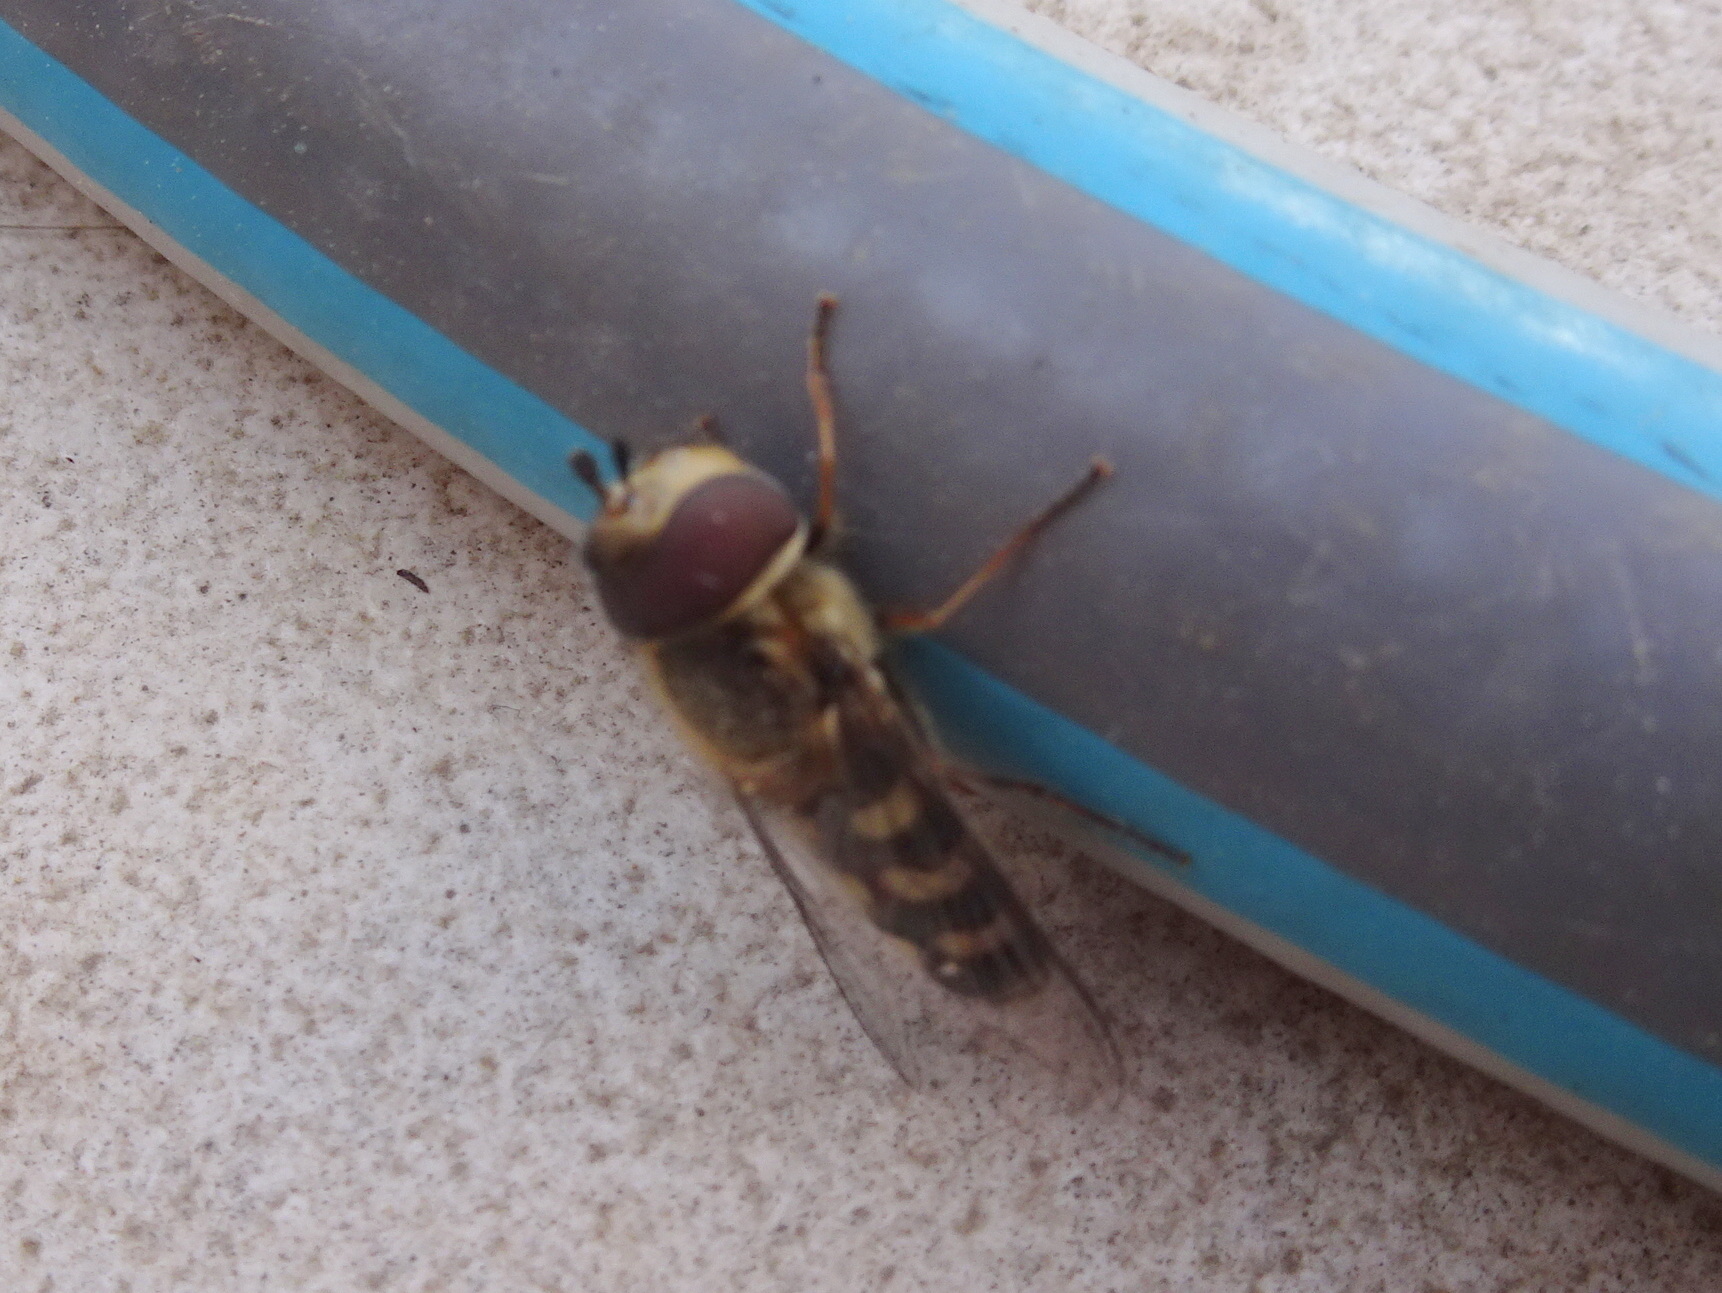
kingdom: Animalia
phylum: Arthropoda
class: Insecta
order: Diptera
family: Syrphidae
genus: Scaeva
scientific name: Scaeva selenitica
